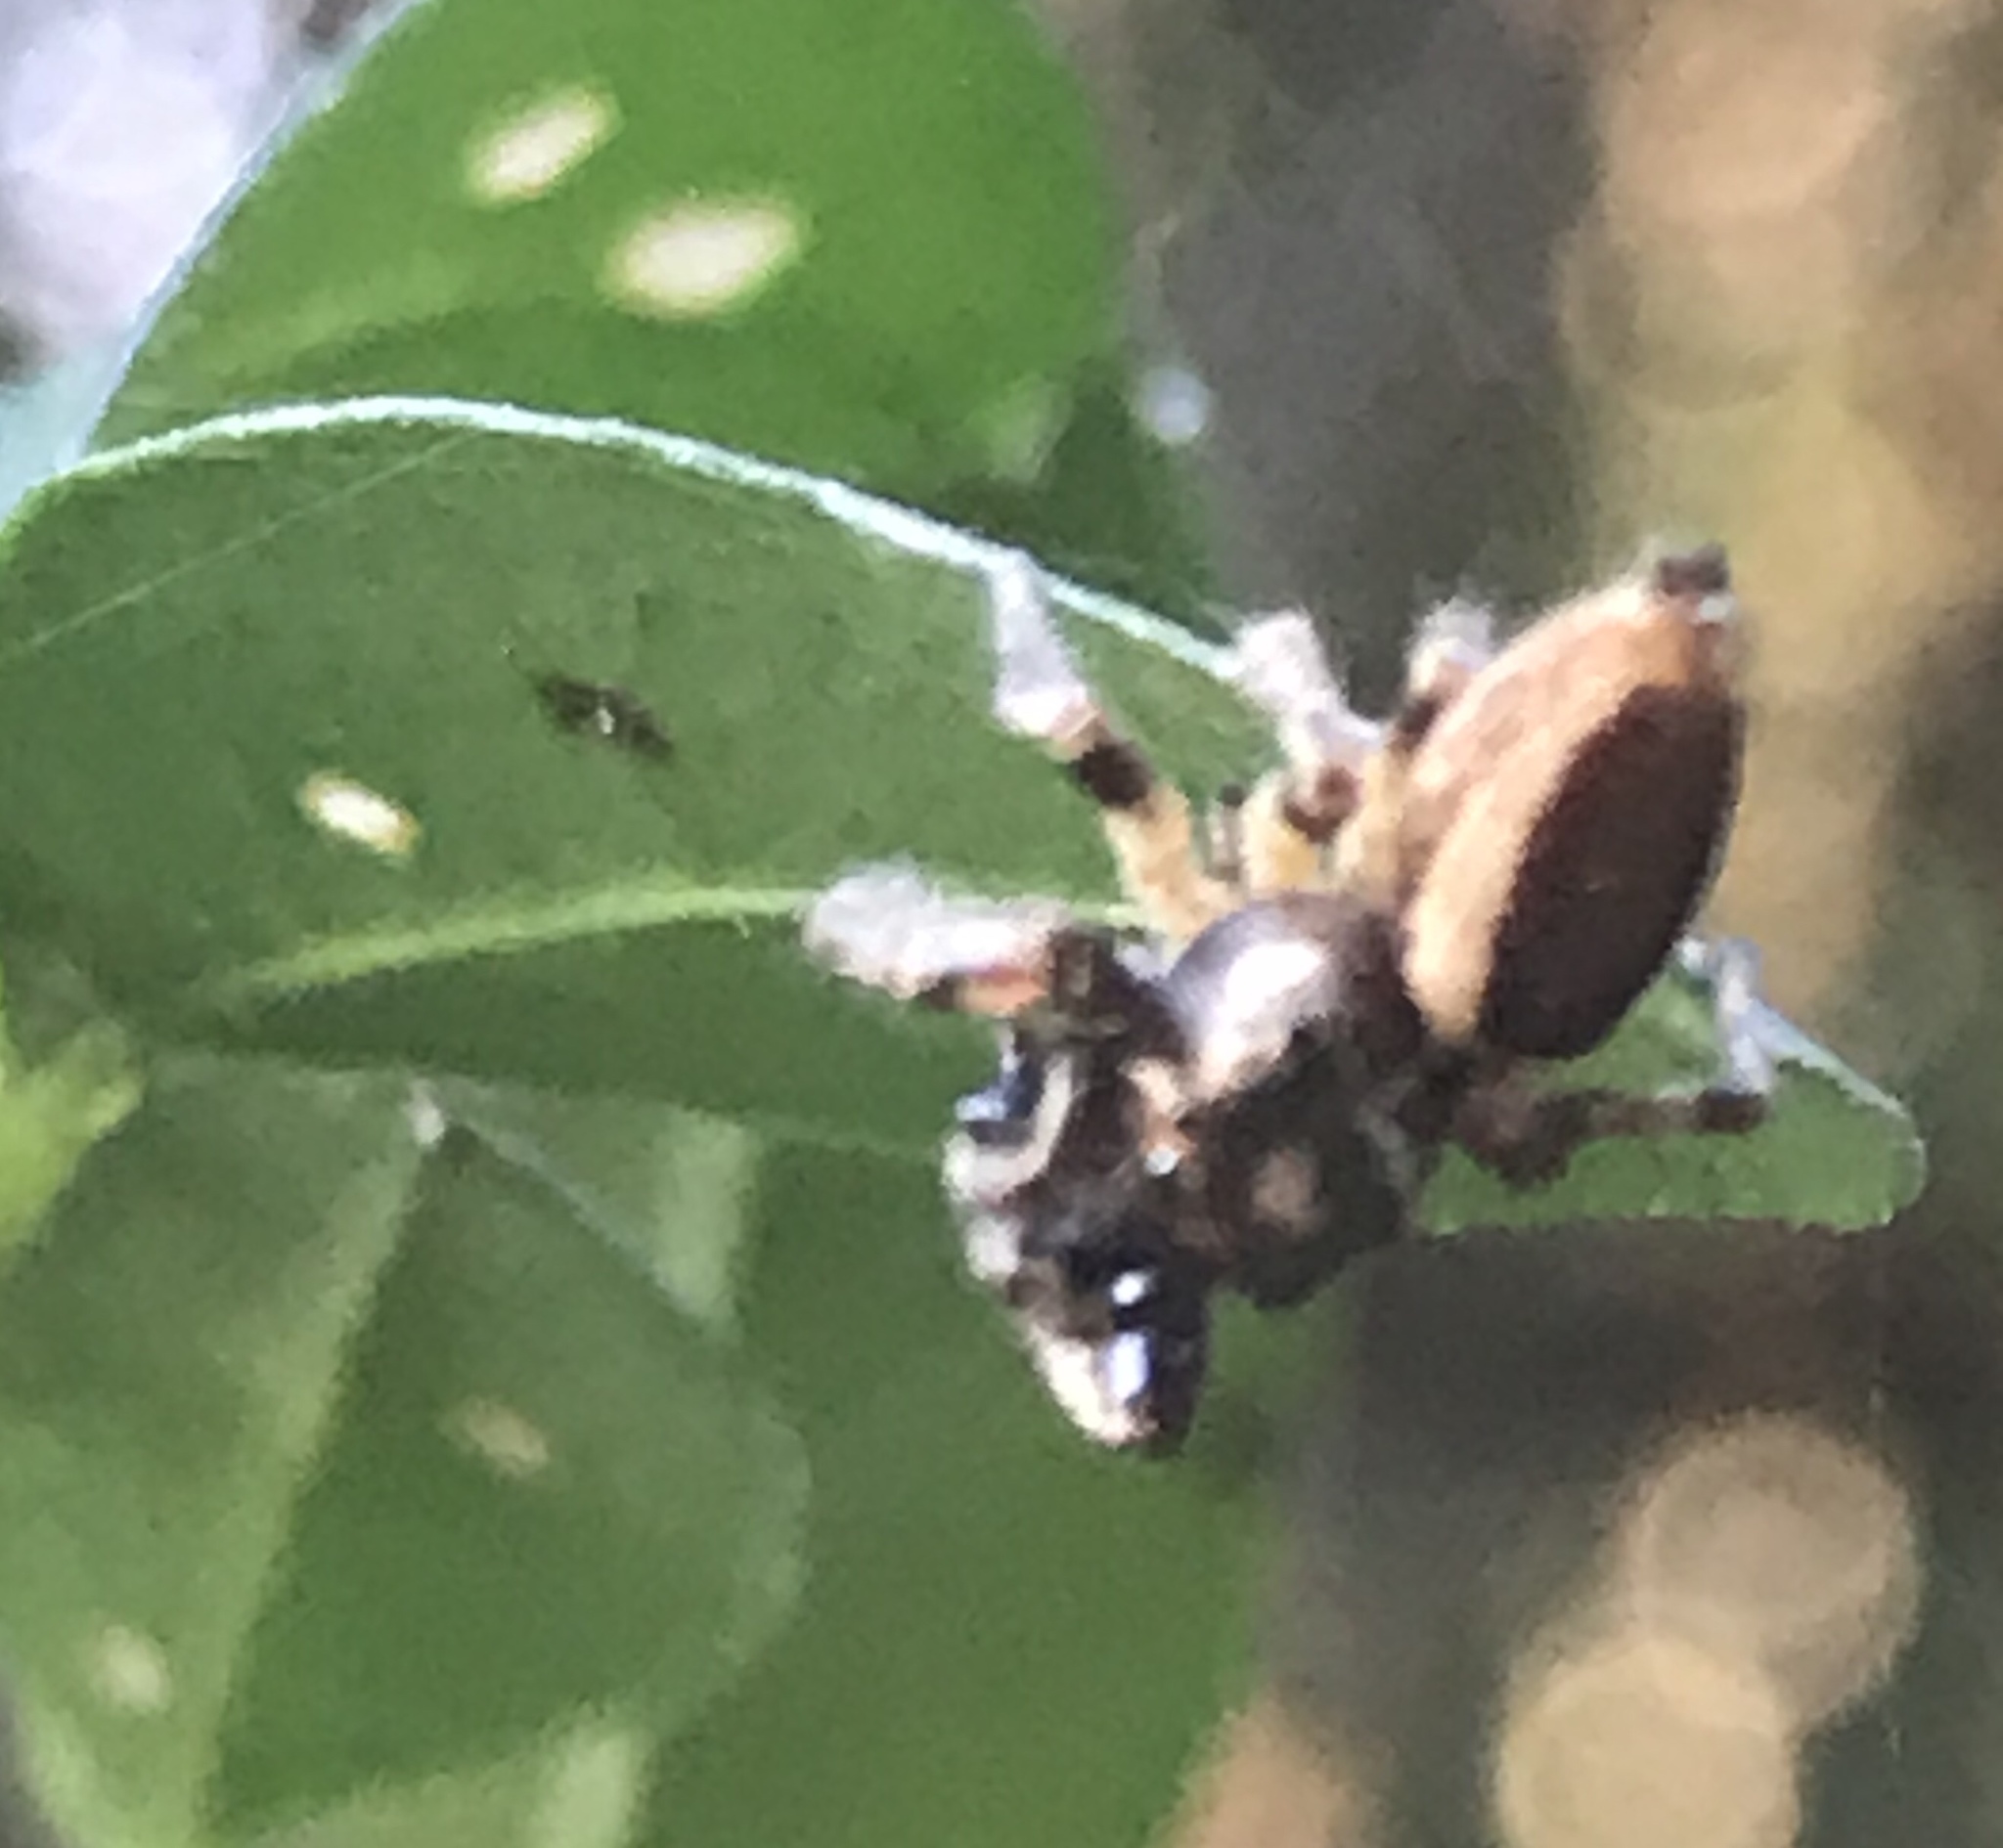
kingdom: Animalia
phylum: Arthropoda
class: Arachnida
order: Araneae
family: Salticidae
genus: Eris
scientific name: Eris militaris
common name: Bronze jumper
